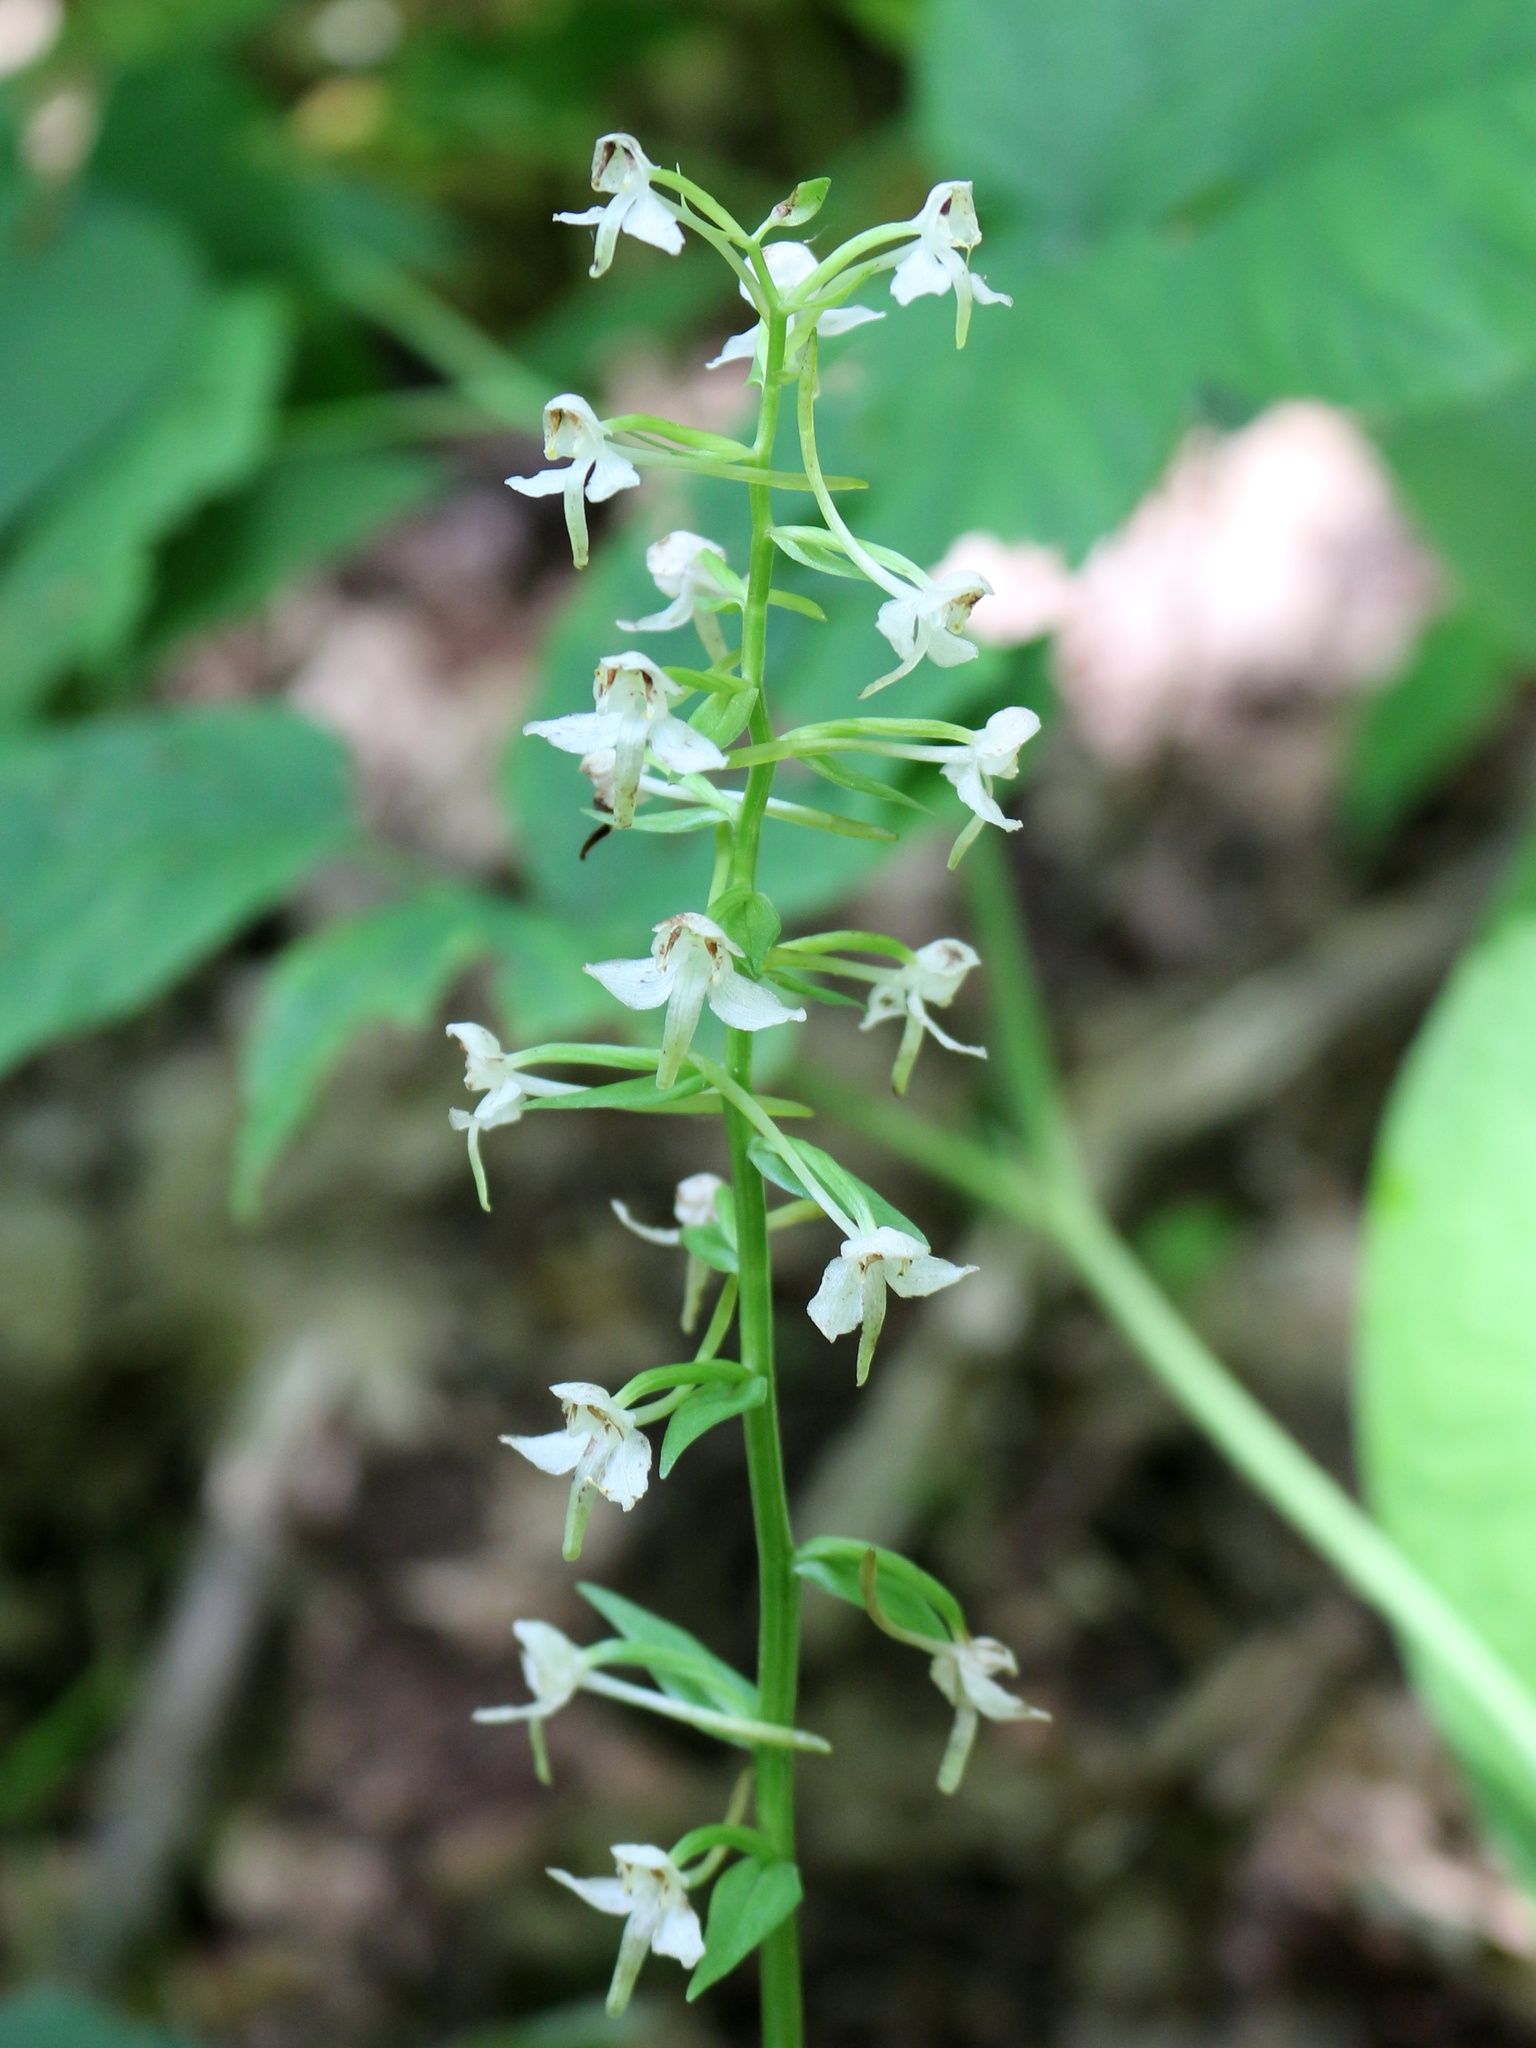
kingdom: Plantae
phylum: Tracheophyta
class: Liliopsida
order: Asparagales
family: Orchidaceae
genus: Platanthera
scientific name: Platanthera chlorantha
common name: Greater butterfly-orchid
